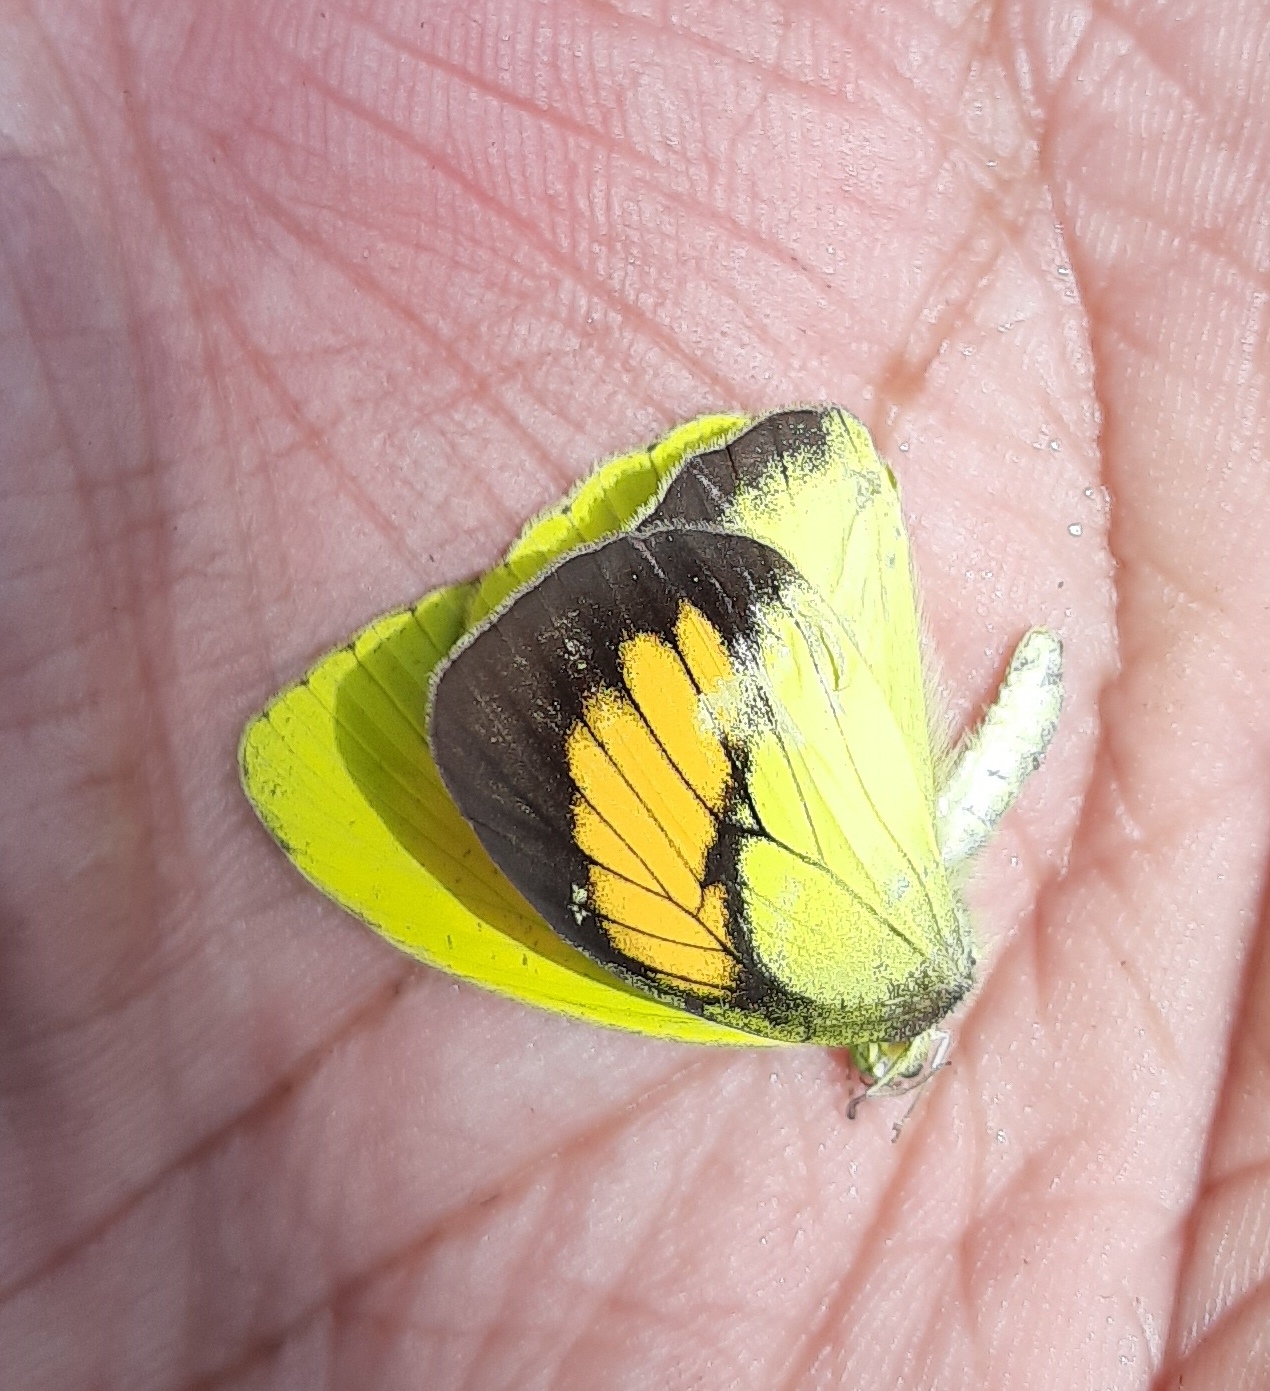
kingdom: Animalia
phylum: Arthropoda
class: Insecta
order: Lepidoptera
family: Pieridae
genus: Ixias
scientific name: Ixias pyrene
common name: Yellow orange tip
